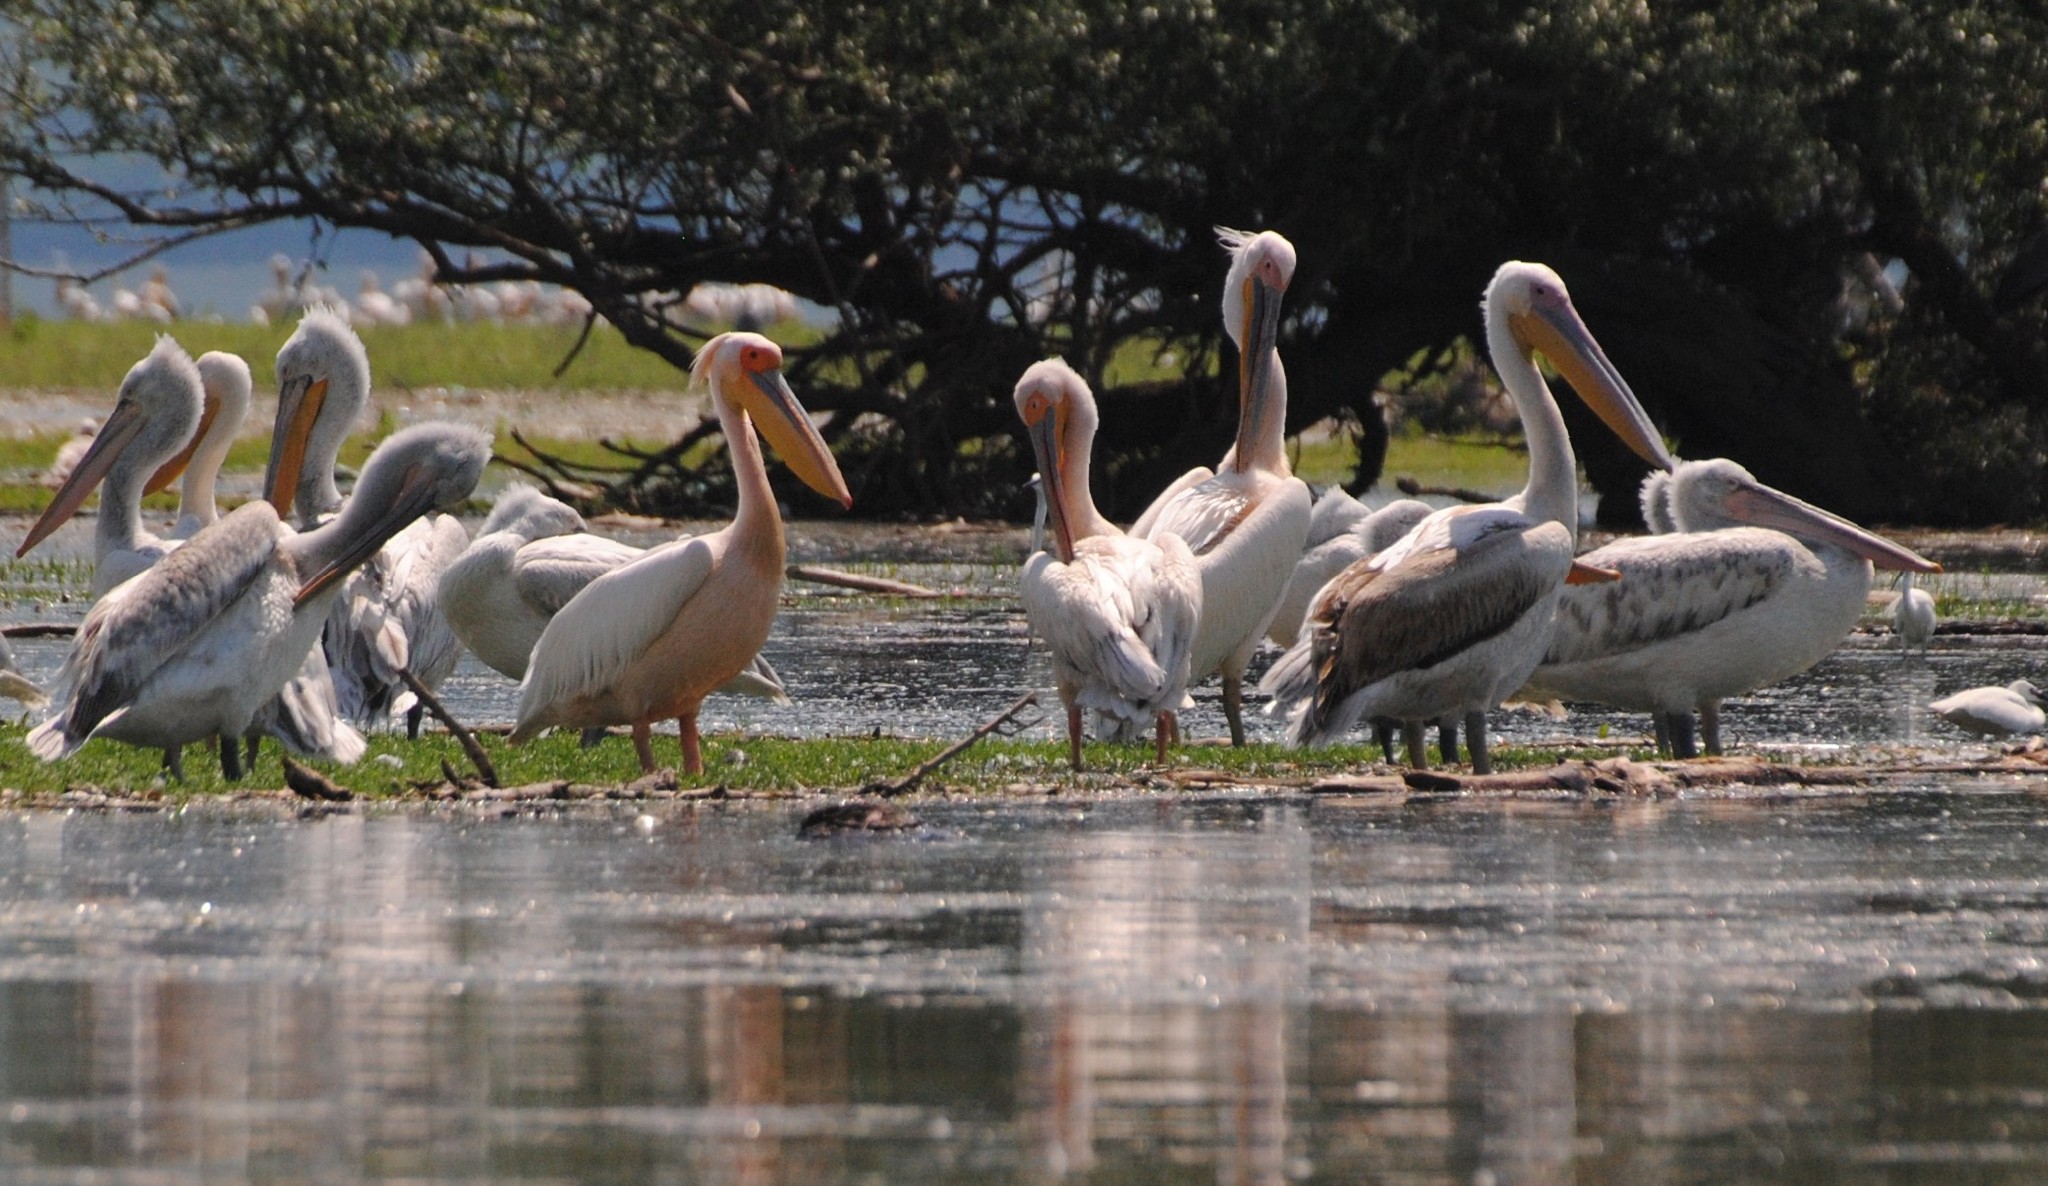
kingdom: Animalia
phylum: Chordata
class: Aves
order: Pelecaniformes
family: Pelecanidae
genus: Pelecanus
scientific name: Pelecanus onocrotalus
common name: Great white pelican
